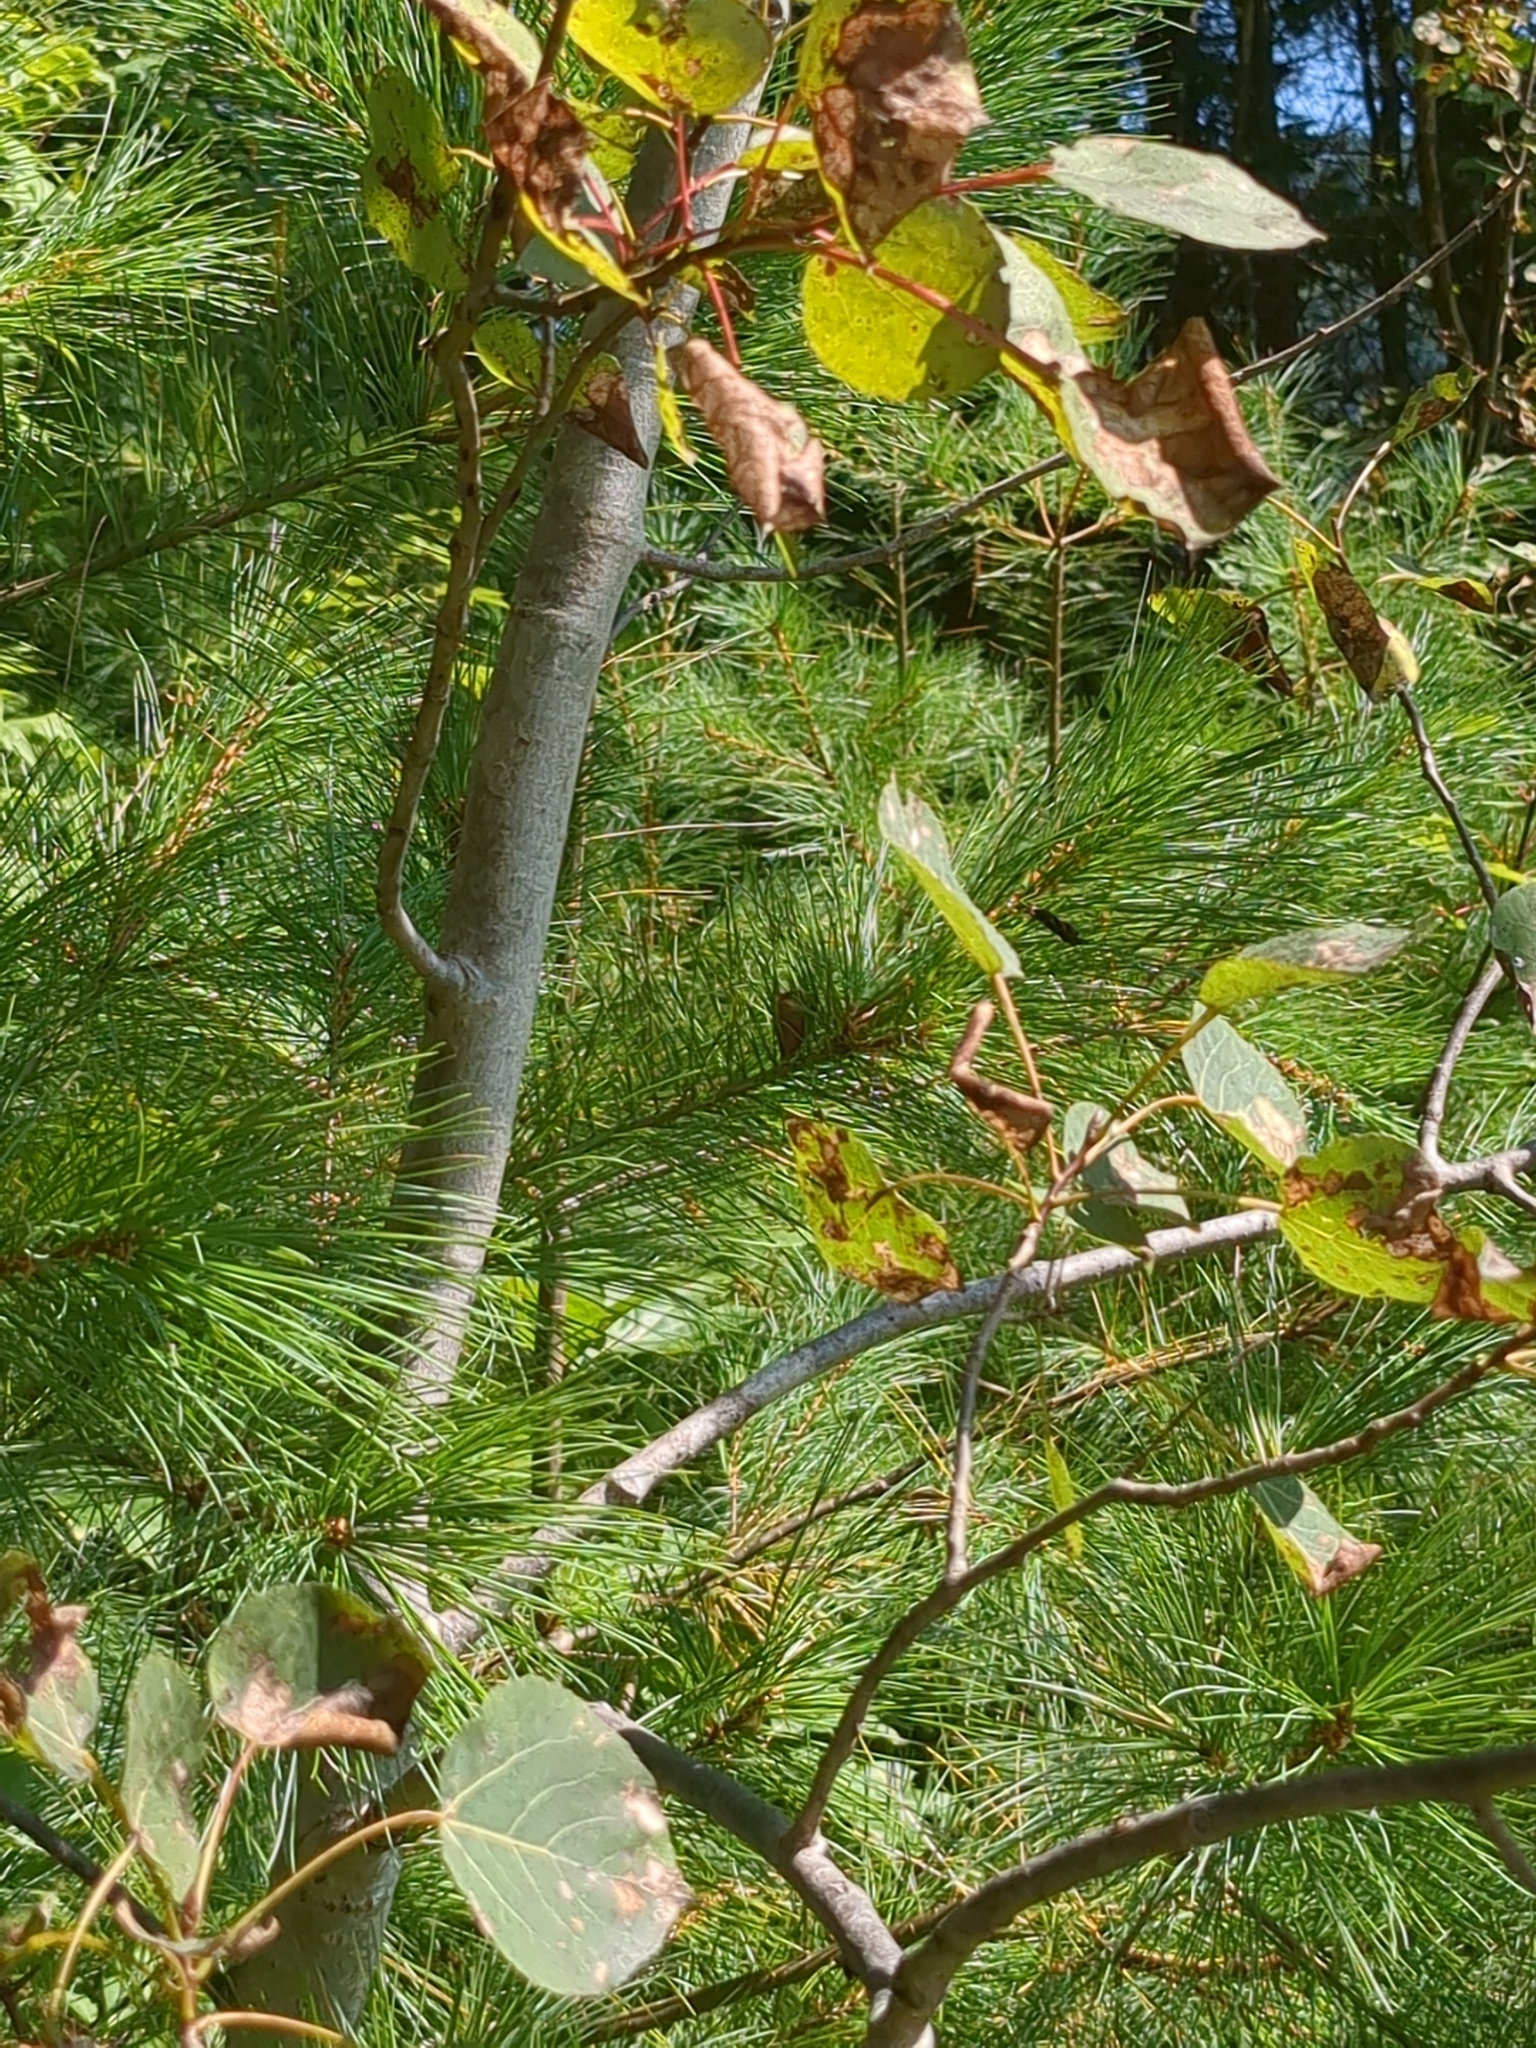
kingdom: Plantae
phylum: Tracheophyta
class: Magnoliopsida
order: Malpighiales
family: Salicaceae
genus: Populus
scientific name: Populus tremuloides
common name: Quaking aspen
